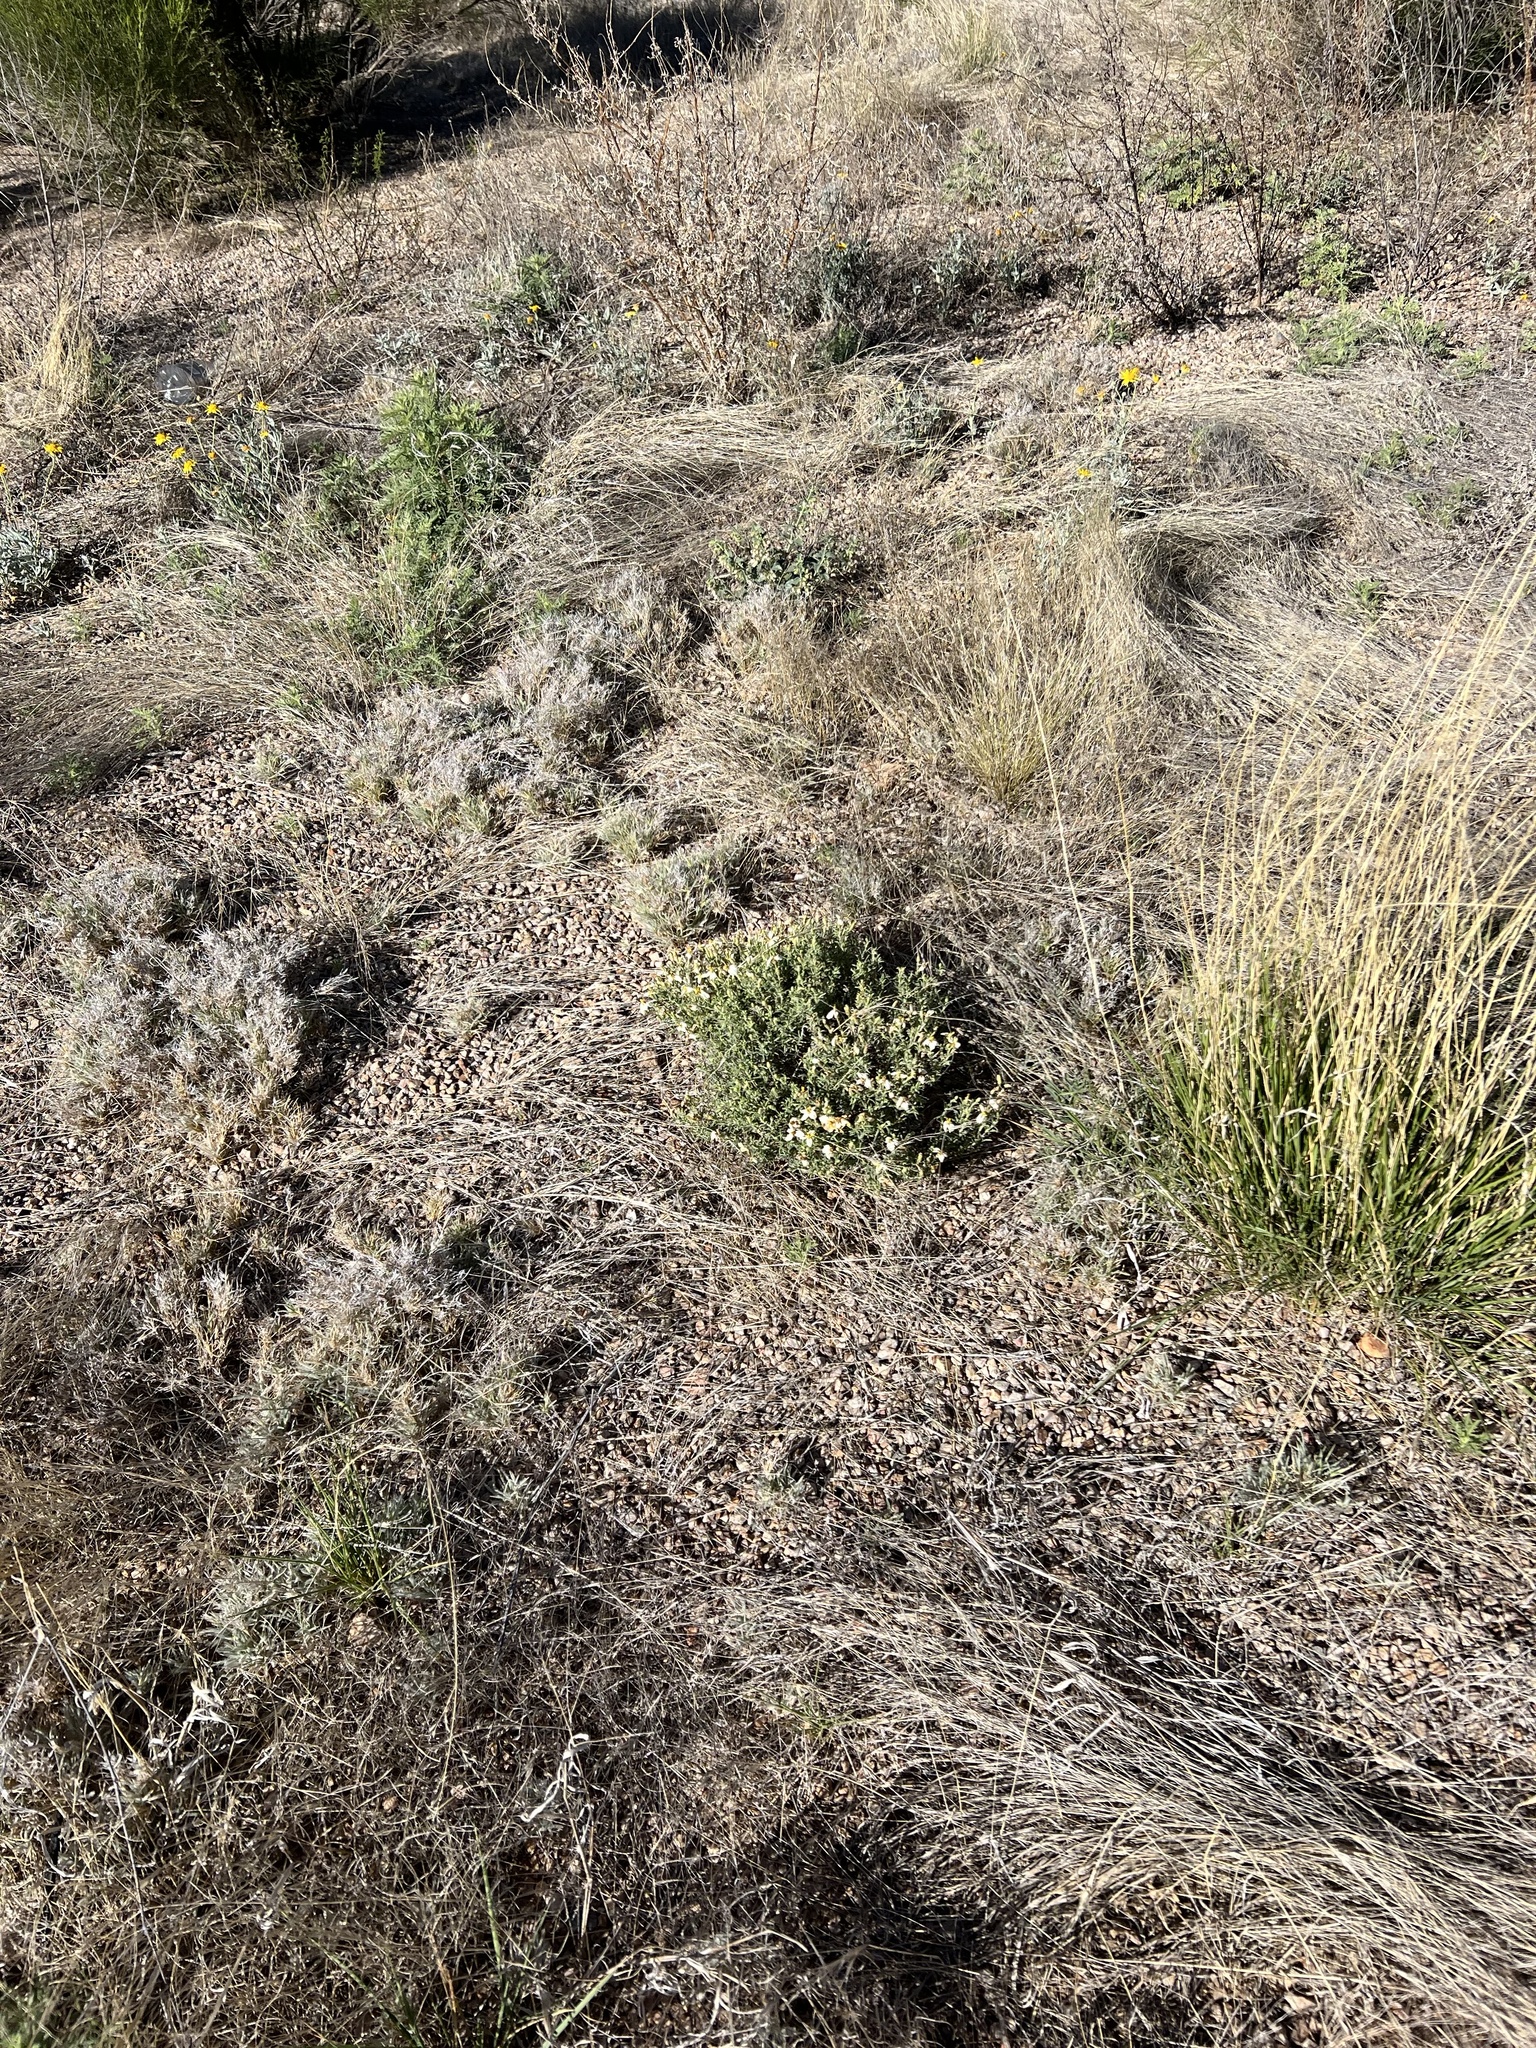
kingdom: Plantae
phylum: Tracheophyta
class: Magnoliopsida
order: Asterales
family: Asteraceae
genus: Zinnia
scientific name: Zinnia acerosa
